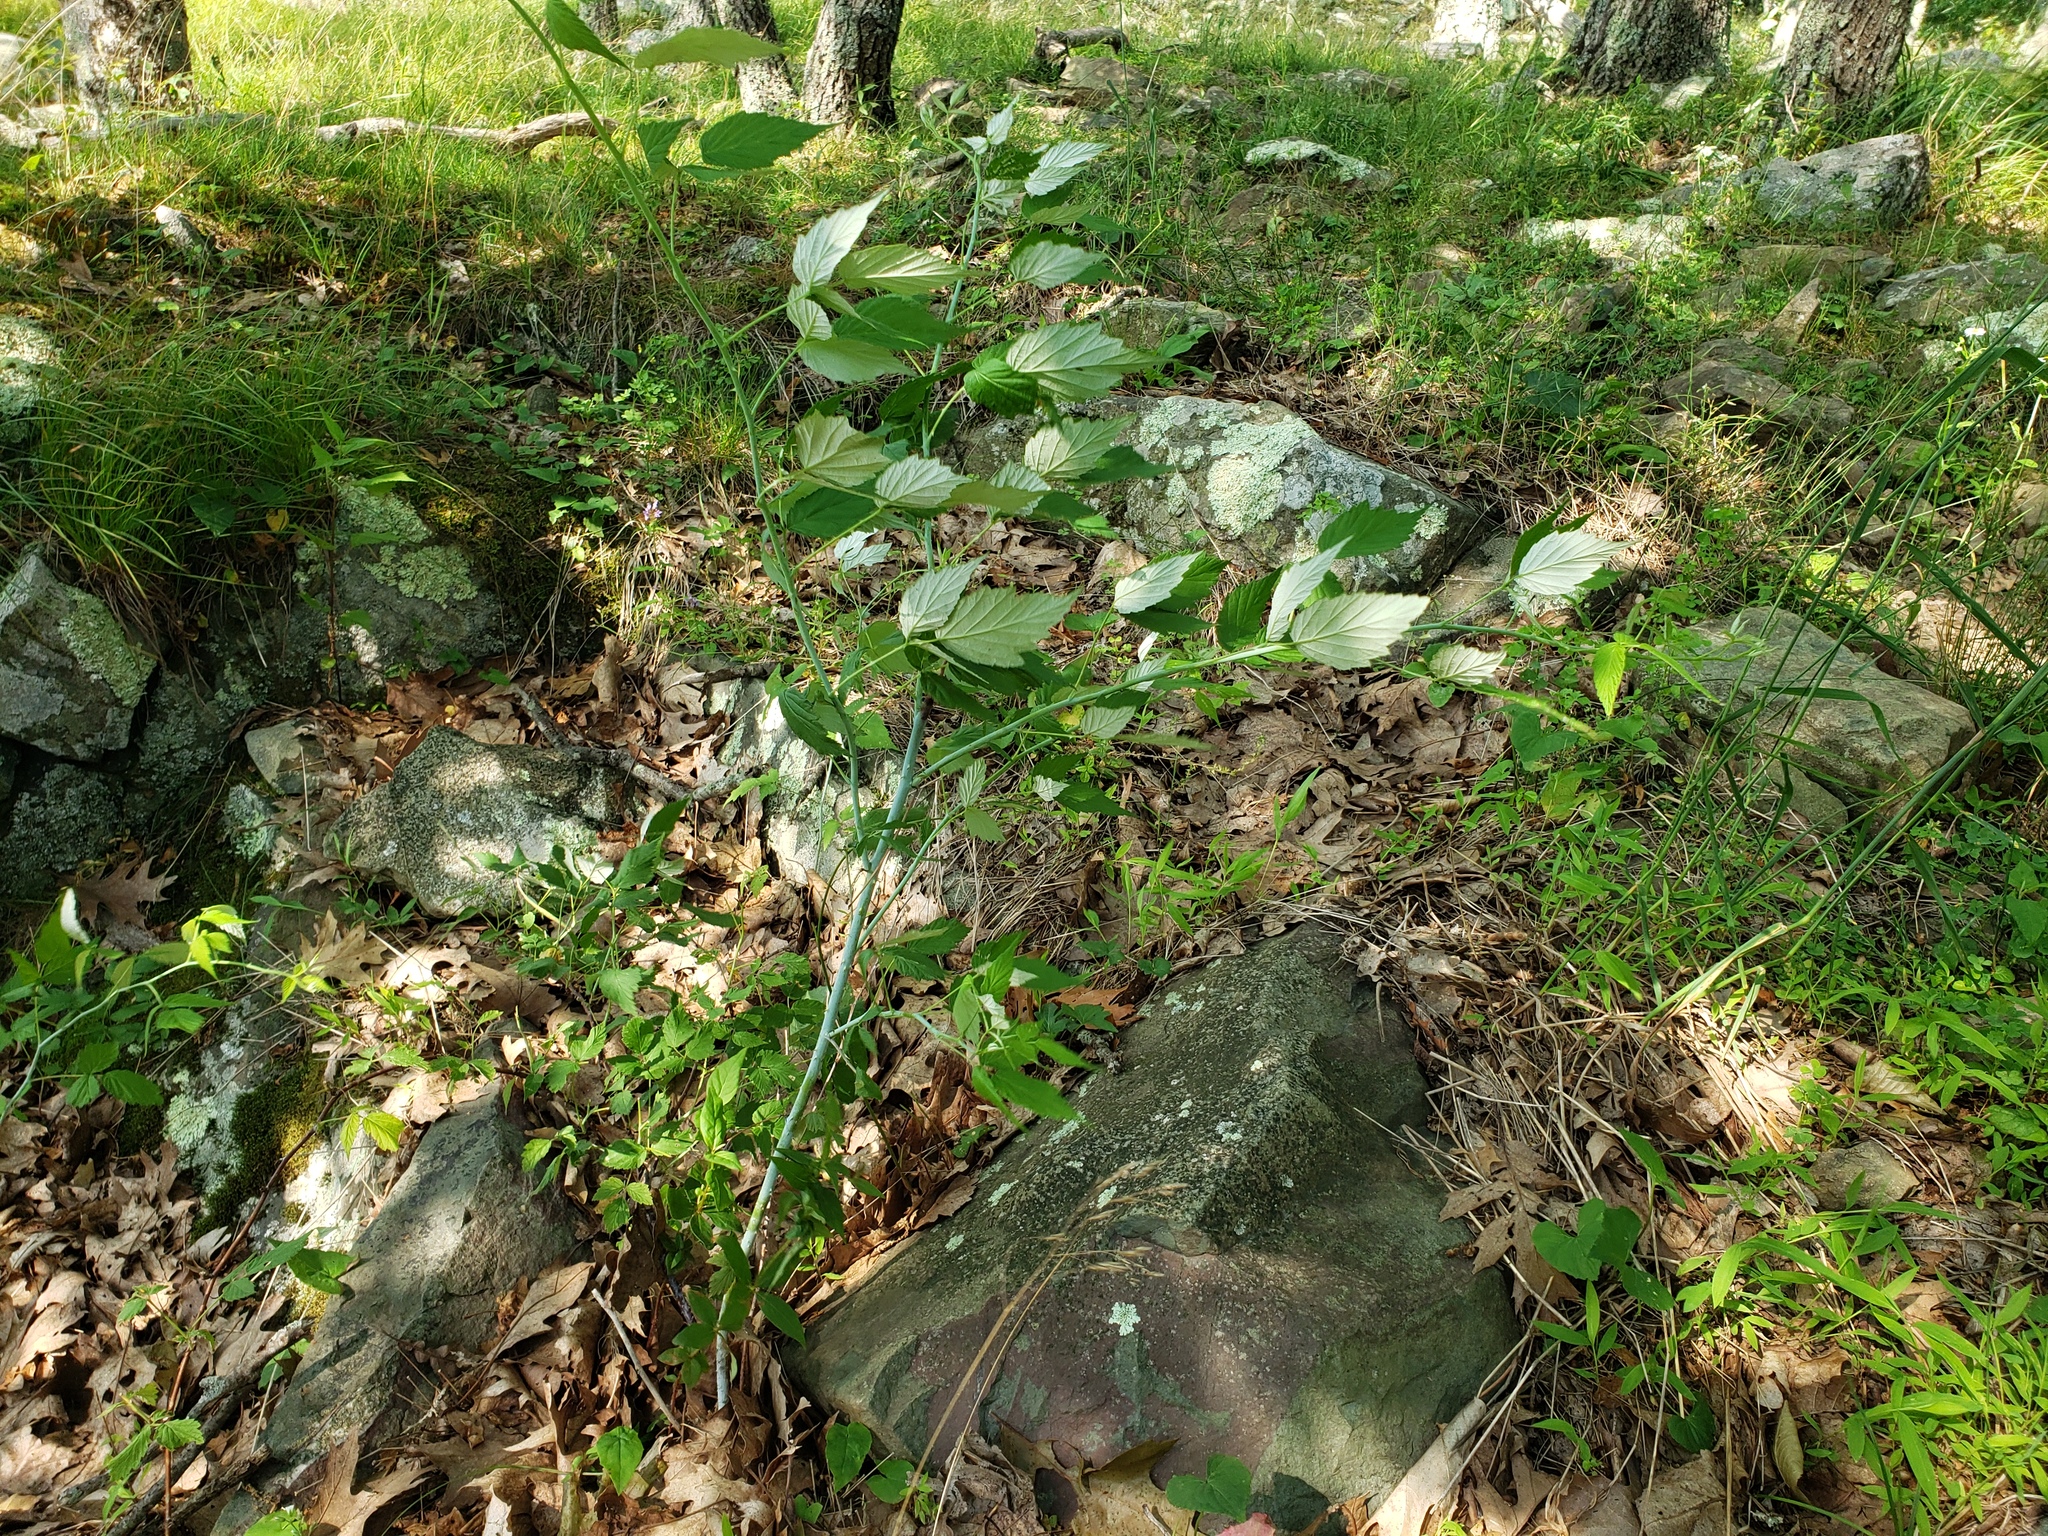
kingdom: Plantae
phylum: Tracheophyta
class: Magnoliopsida
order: Rosales
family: Rosaceae
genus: Rubus
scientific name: Rubus occidentalis
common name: Black raspberry
